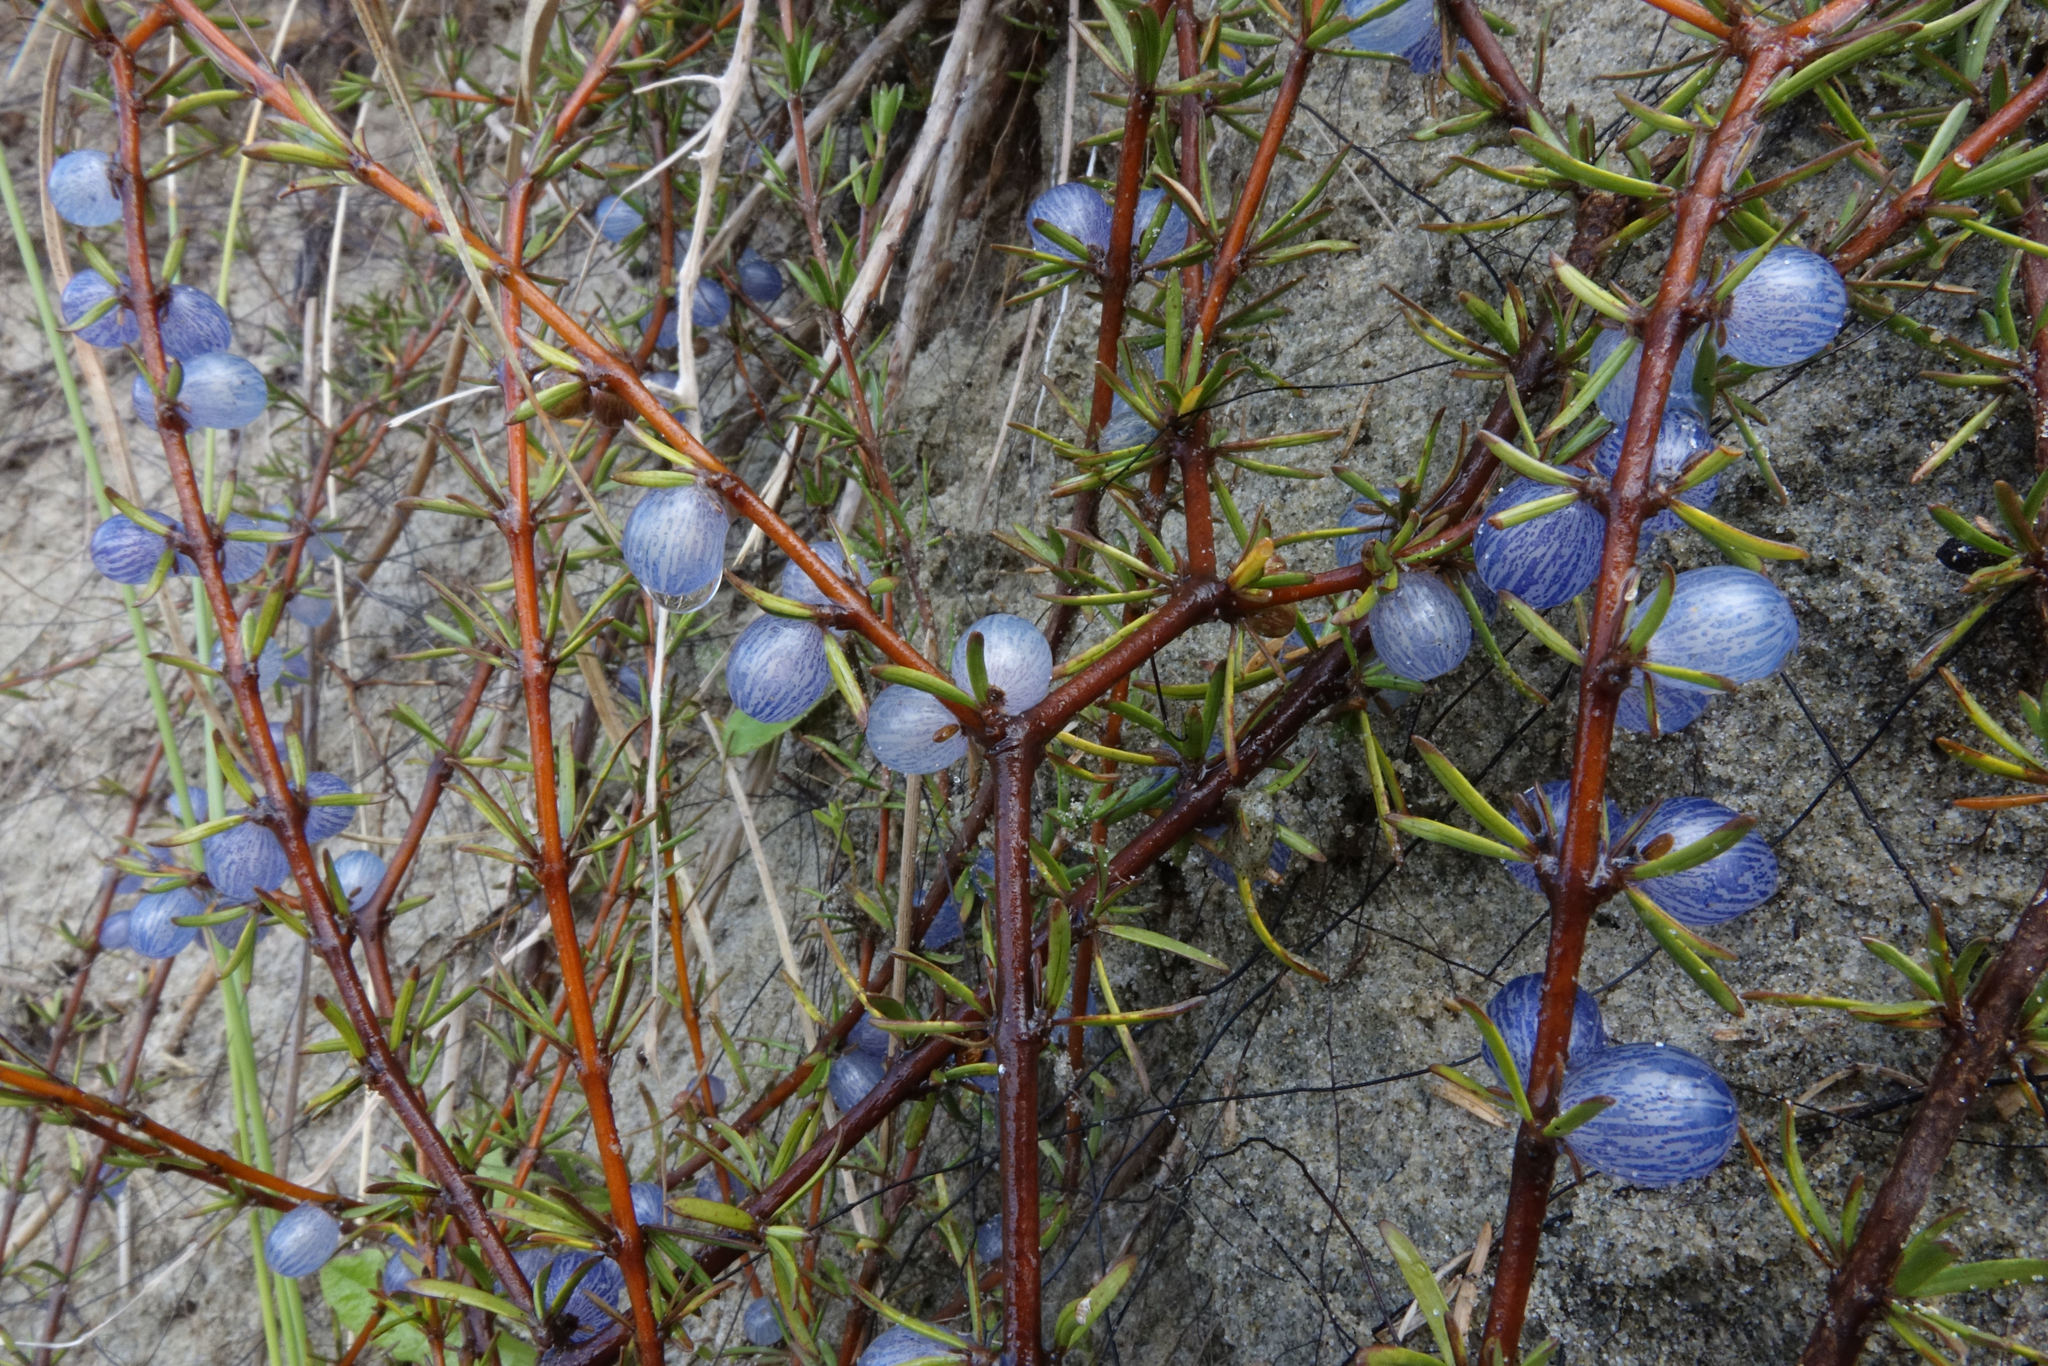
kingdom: Plantae
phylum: Tracheophyta
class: Magnoliopsida
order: Gentianales
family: Rubiaceae
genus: Coprosma
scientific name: Coprosma acerosa
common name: Sand coprosma
